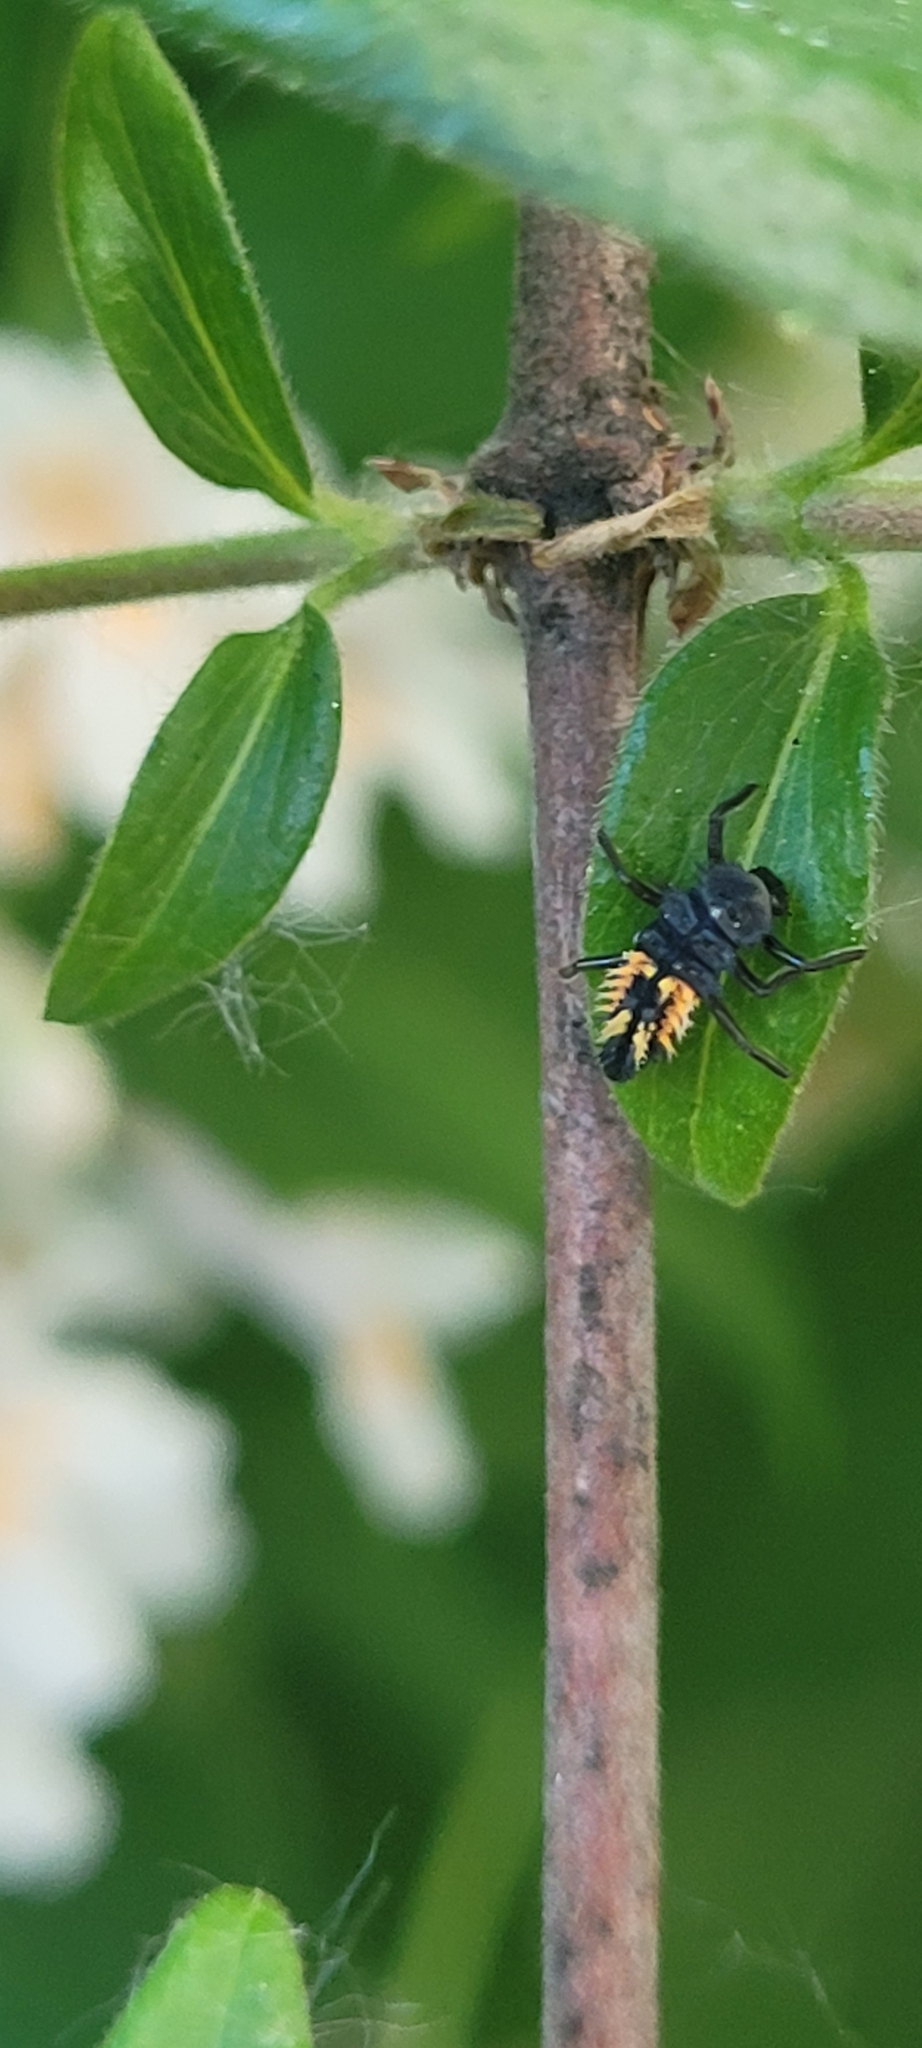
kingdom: Animalia
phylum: Arthropoda
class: Insecta
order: Coleoptera
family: Coccinellidae
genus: Harmonia
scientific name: Harmonia axyridis
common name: Harlequin ladybird
